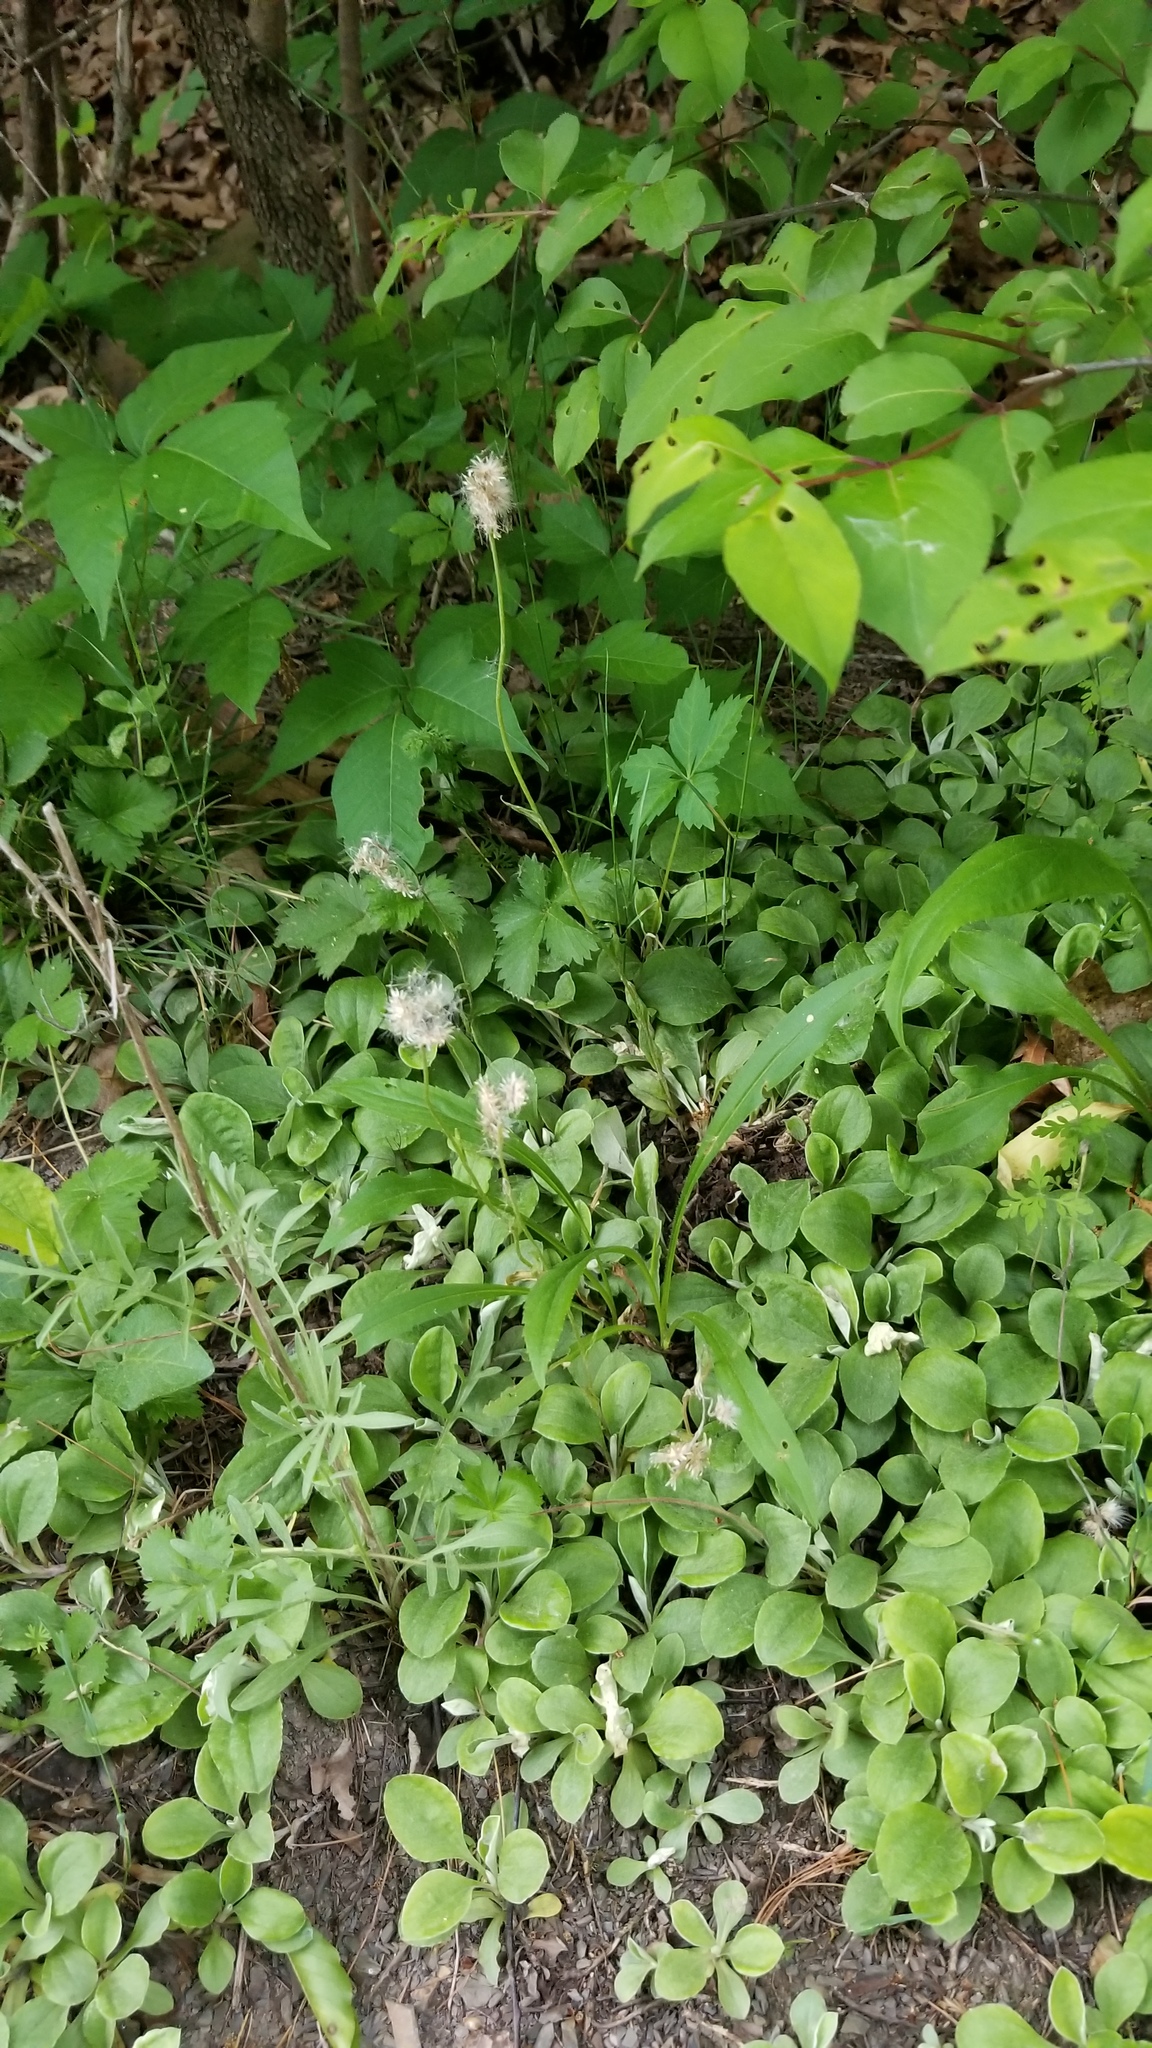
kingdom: Plantae
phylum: Tracheophyta
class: Magnoliopsida
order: Asterales
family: Asteraceae
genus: Antennaria
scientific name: Antennaria plantaginifolia
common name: Plantain-leaved pussytoes
